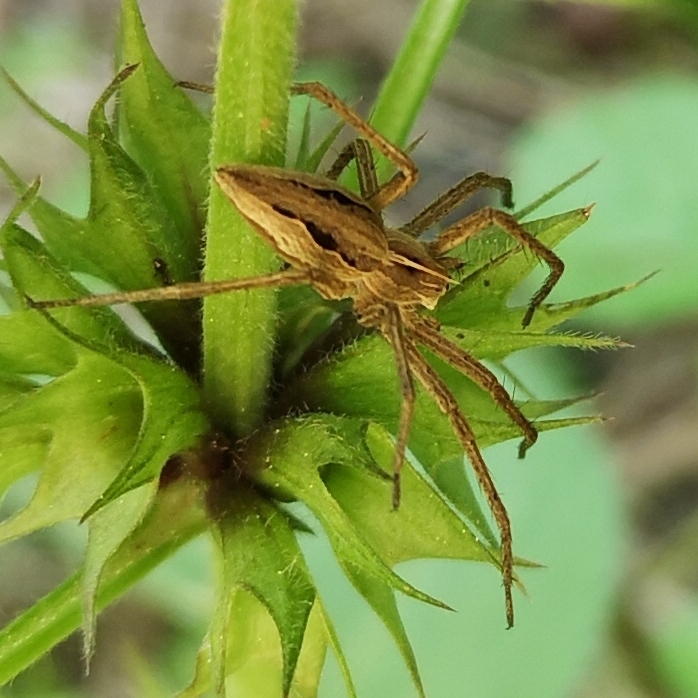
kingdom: Animalia
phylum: Arthropoda
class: Arachnida
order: Araneae
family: Pisauridae
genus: Pisaura
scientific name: Pisaura mirabilis
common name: Tent spider
